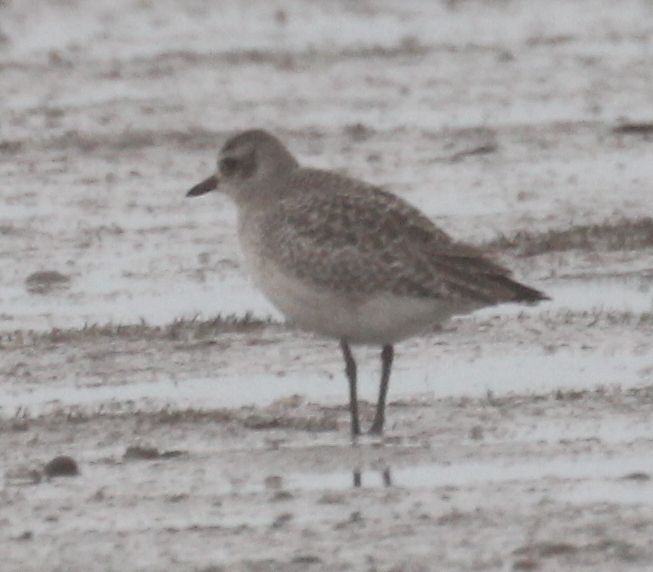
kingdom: Animalia
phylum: Chordata
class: Aves
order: Charadriiformes
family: Charadriidae
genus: Pluvialis
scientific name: Pluvialis squatarola
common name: Grey plover
